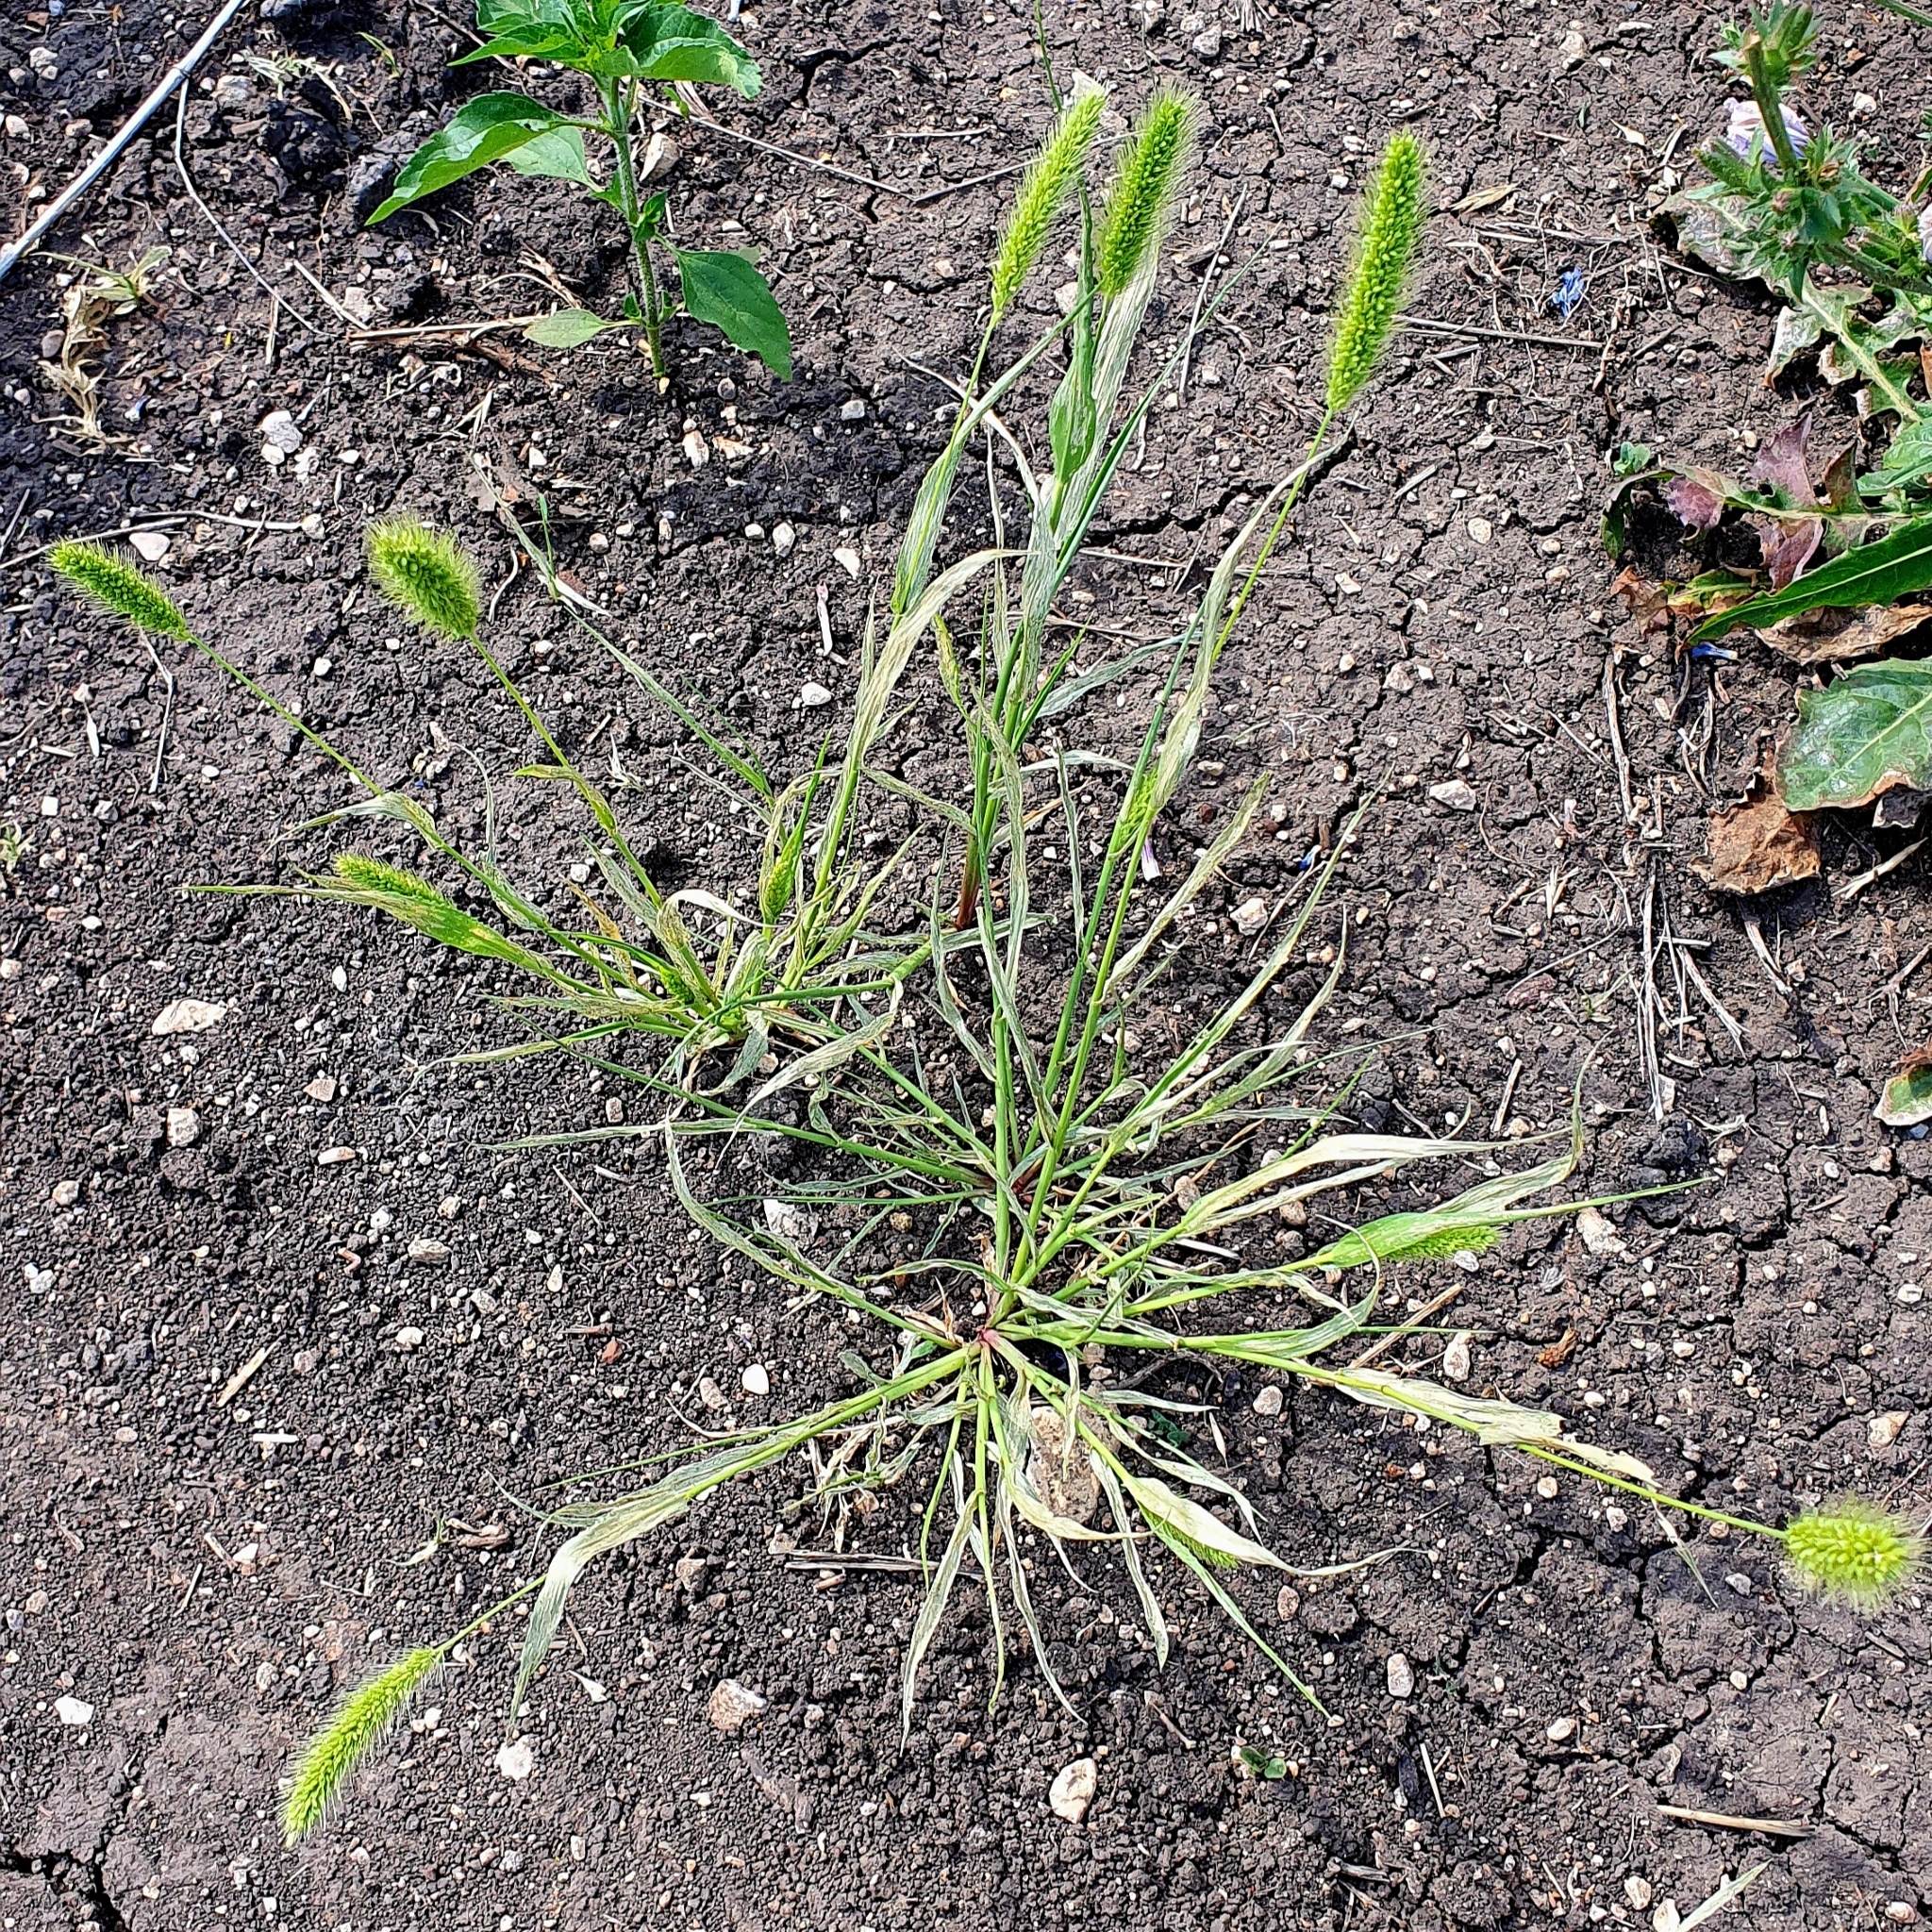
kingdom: Plantae
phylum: Tracheophyta
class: Liliopsida
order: Poales
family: Poaceae
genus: Setaria
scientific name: Setaria viridis
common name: Green bristlegrass
